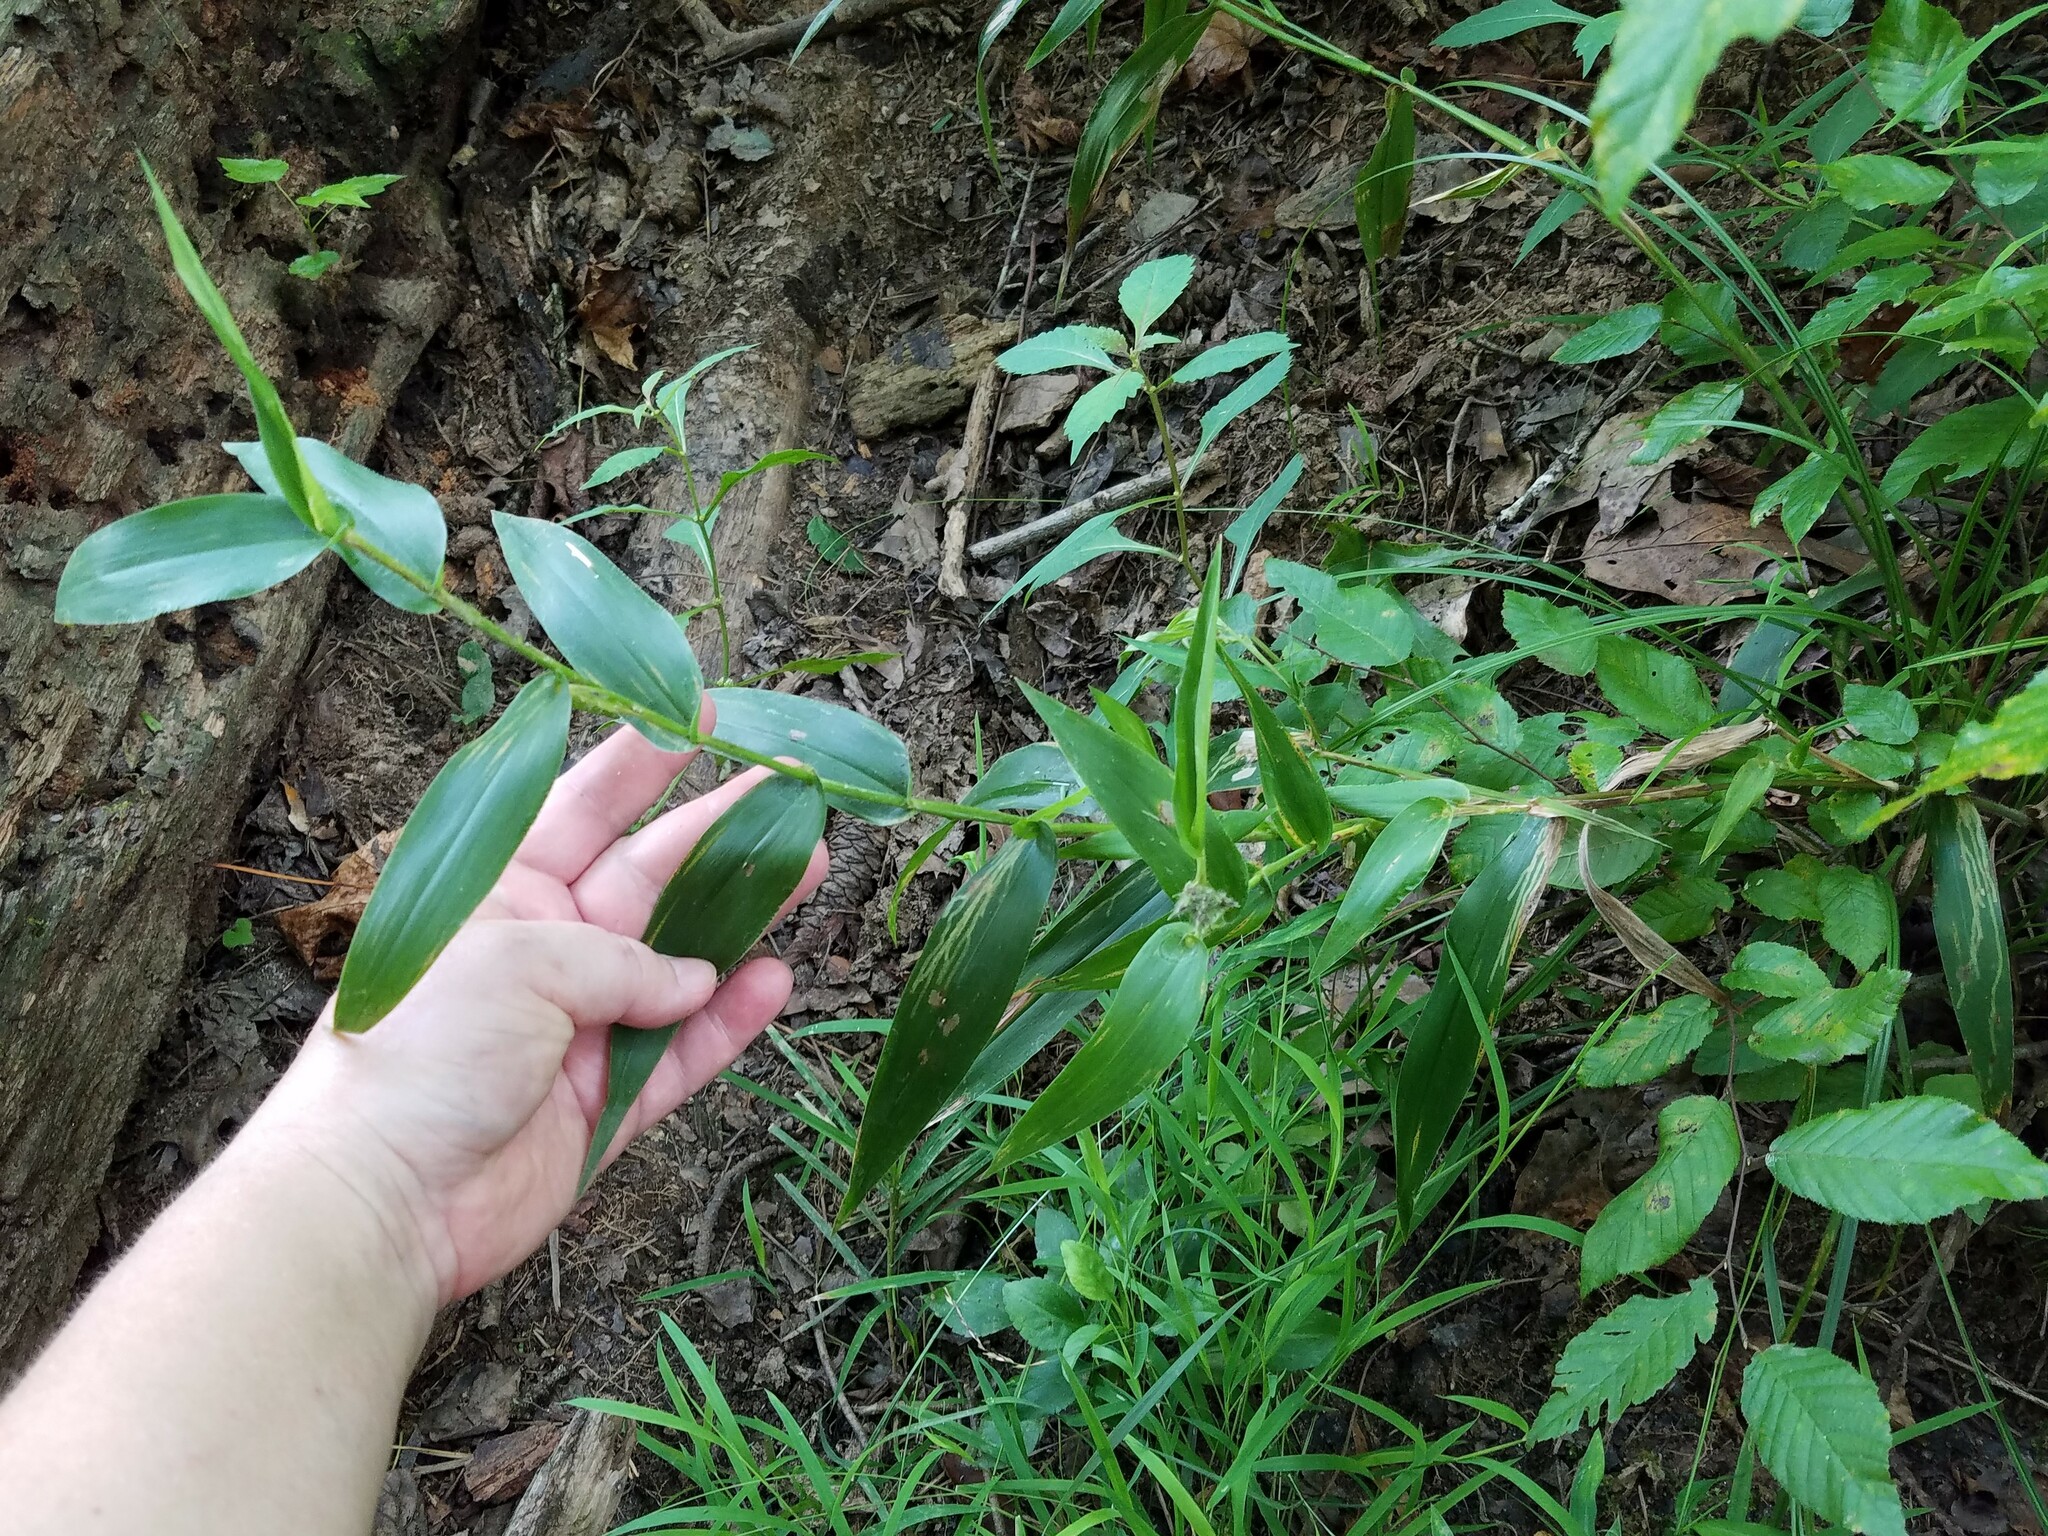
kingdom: Plantae
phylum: Tracheophyta
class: Liliopsida
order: Poales
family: Poaceae
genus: Dichanthelium
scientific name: Dichanthelium clandestinum
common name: Deer-tongue grass
